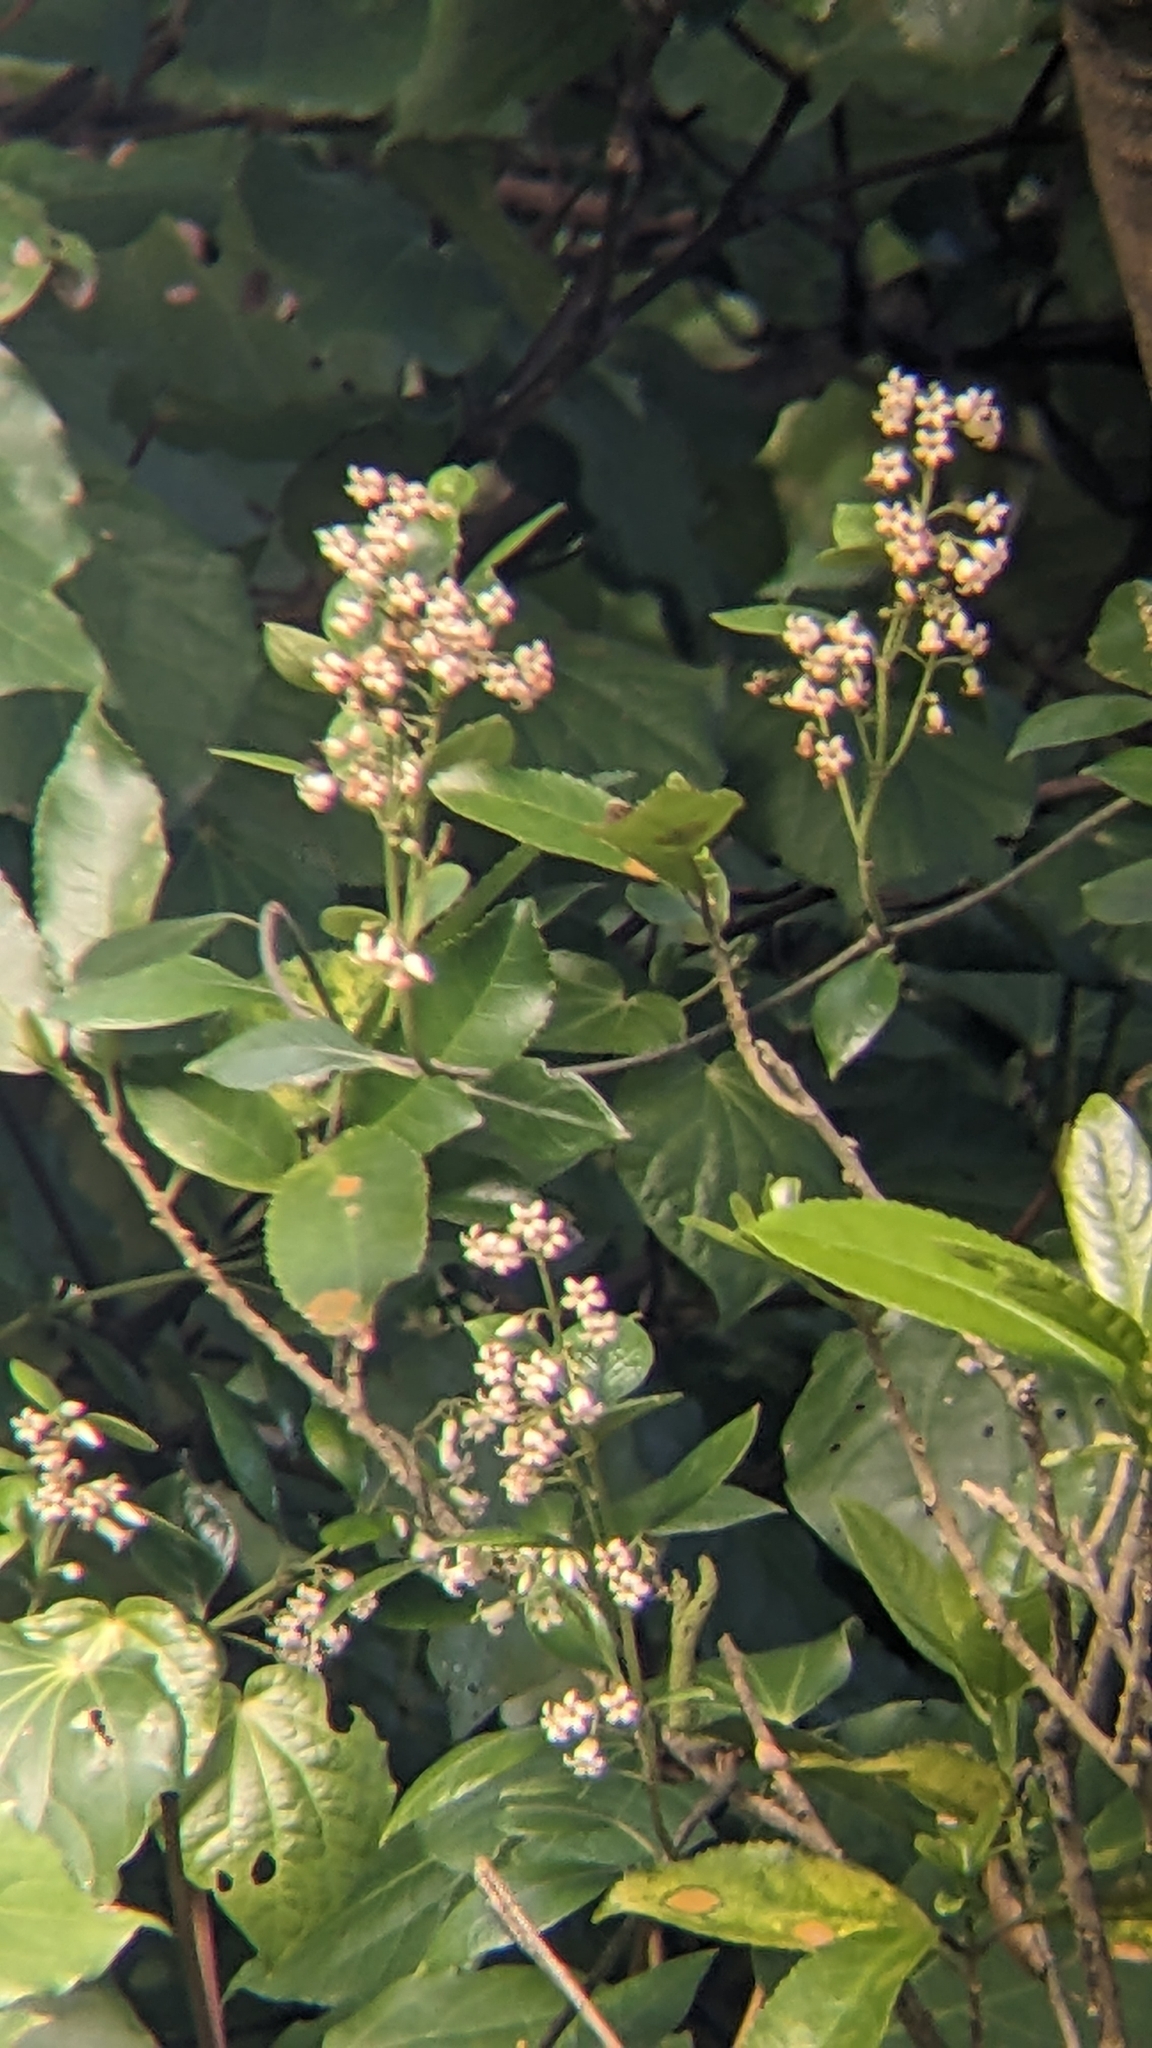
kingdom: Plantae
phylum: Tracheophyta
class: Magnoliopsida
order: Gentianales
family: Apocynaceae
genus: Parsonsia
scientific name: Parsonsia heterophylla
